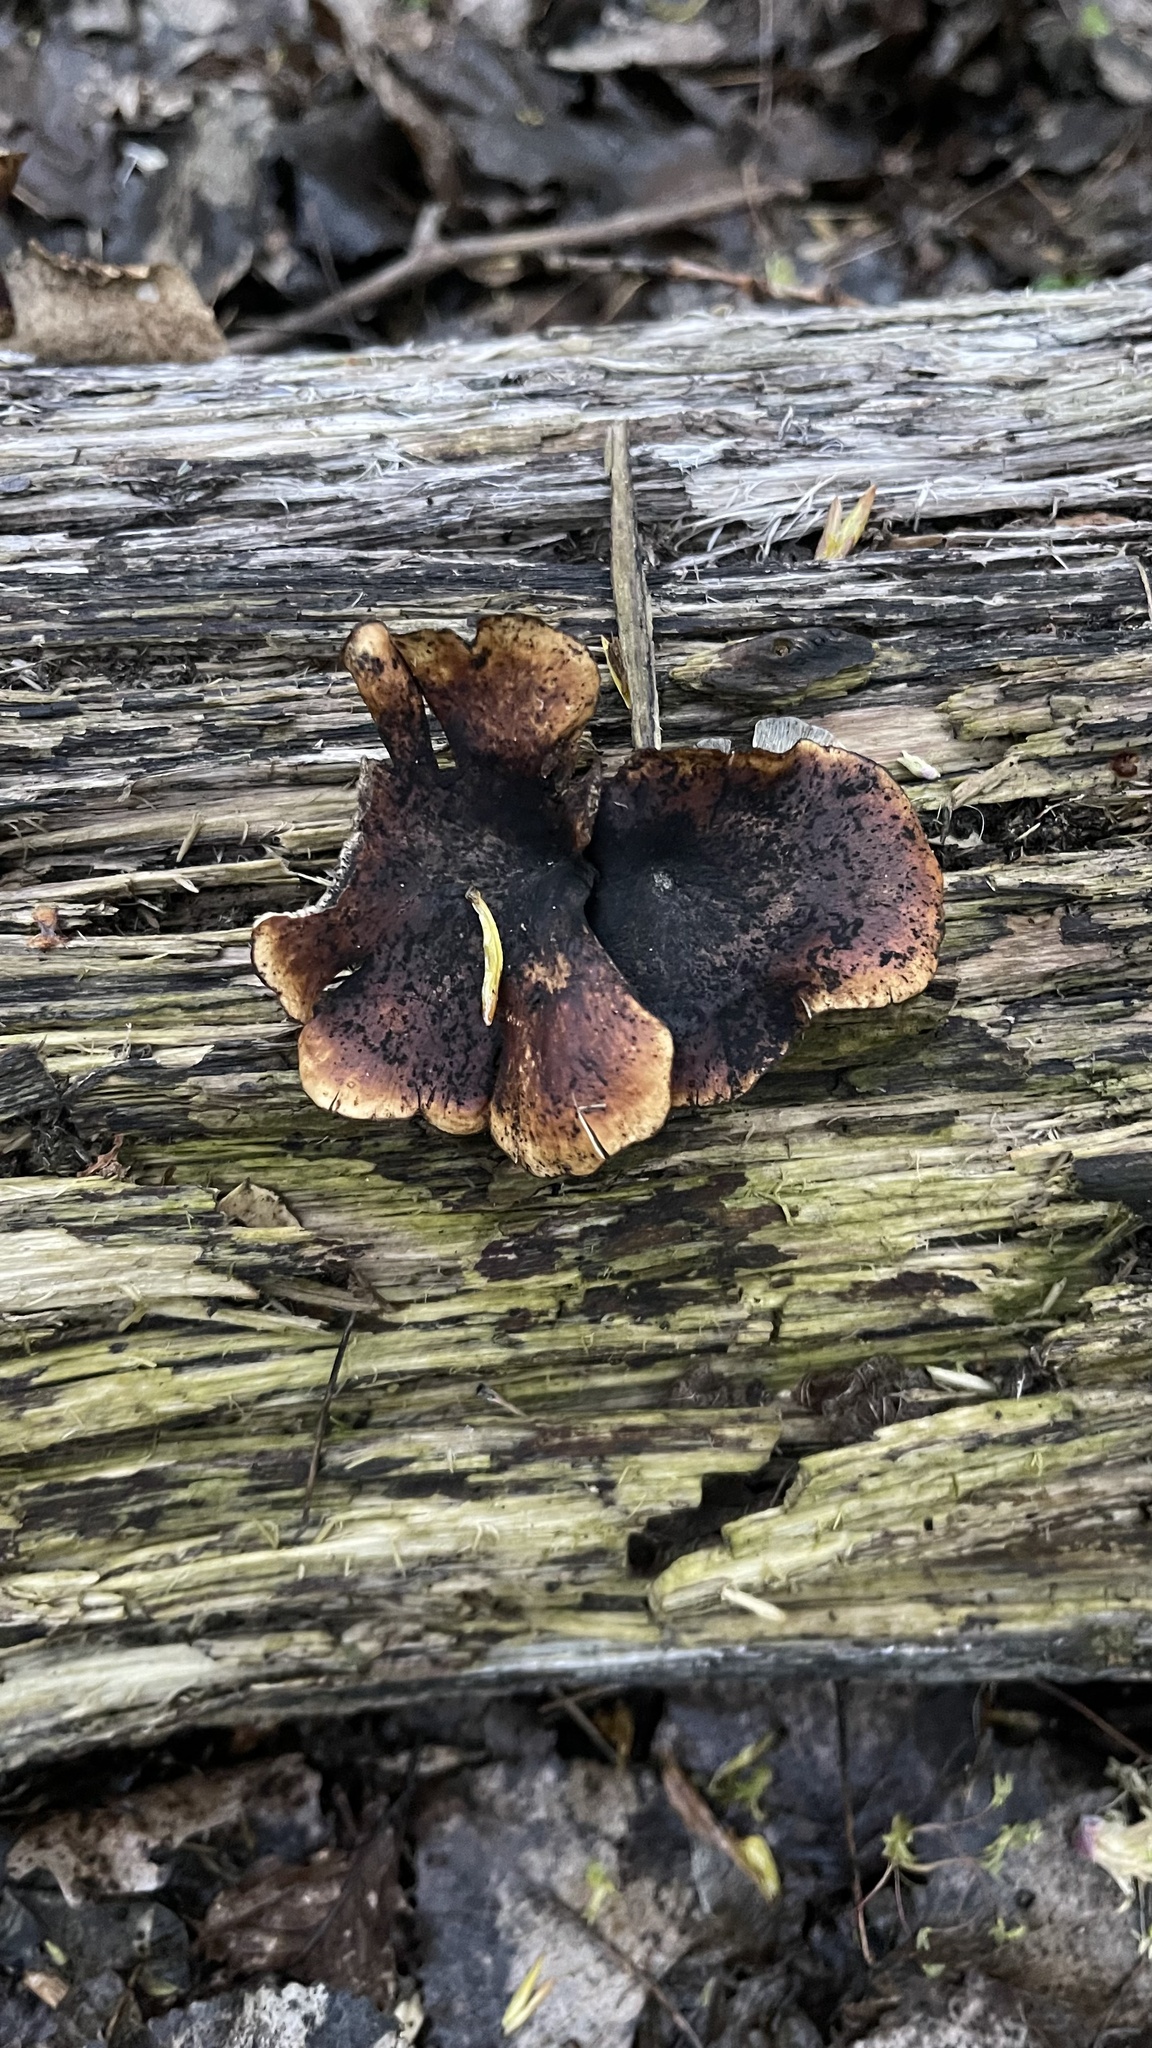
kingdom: Fungi
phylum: Basidiomycota
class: Agaricomycetes
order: Polyporales
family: Polyporaceae
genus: Picipes
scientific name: Picipes badius
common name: Bay polypore
